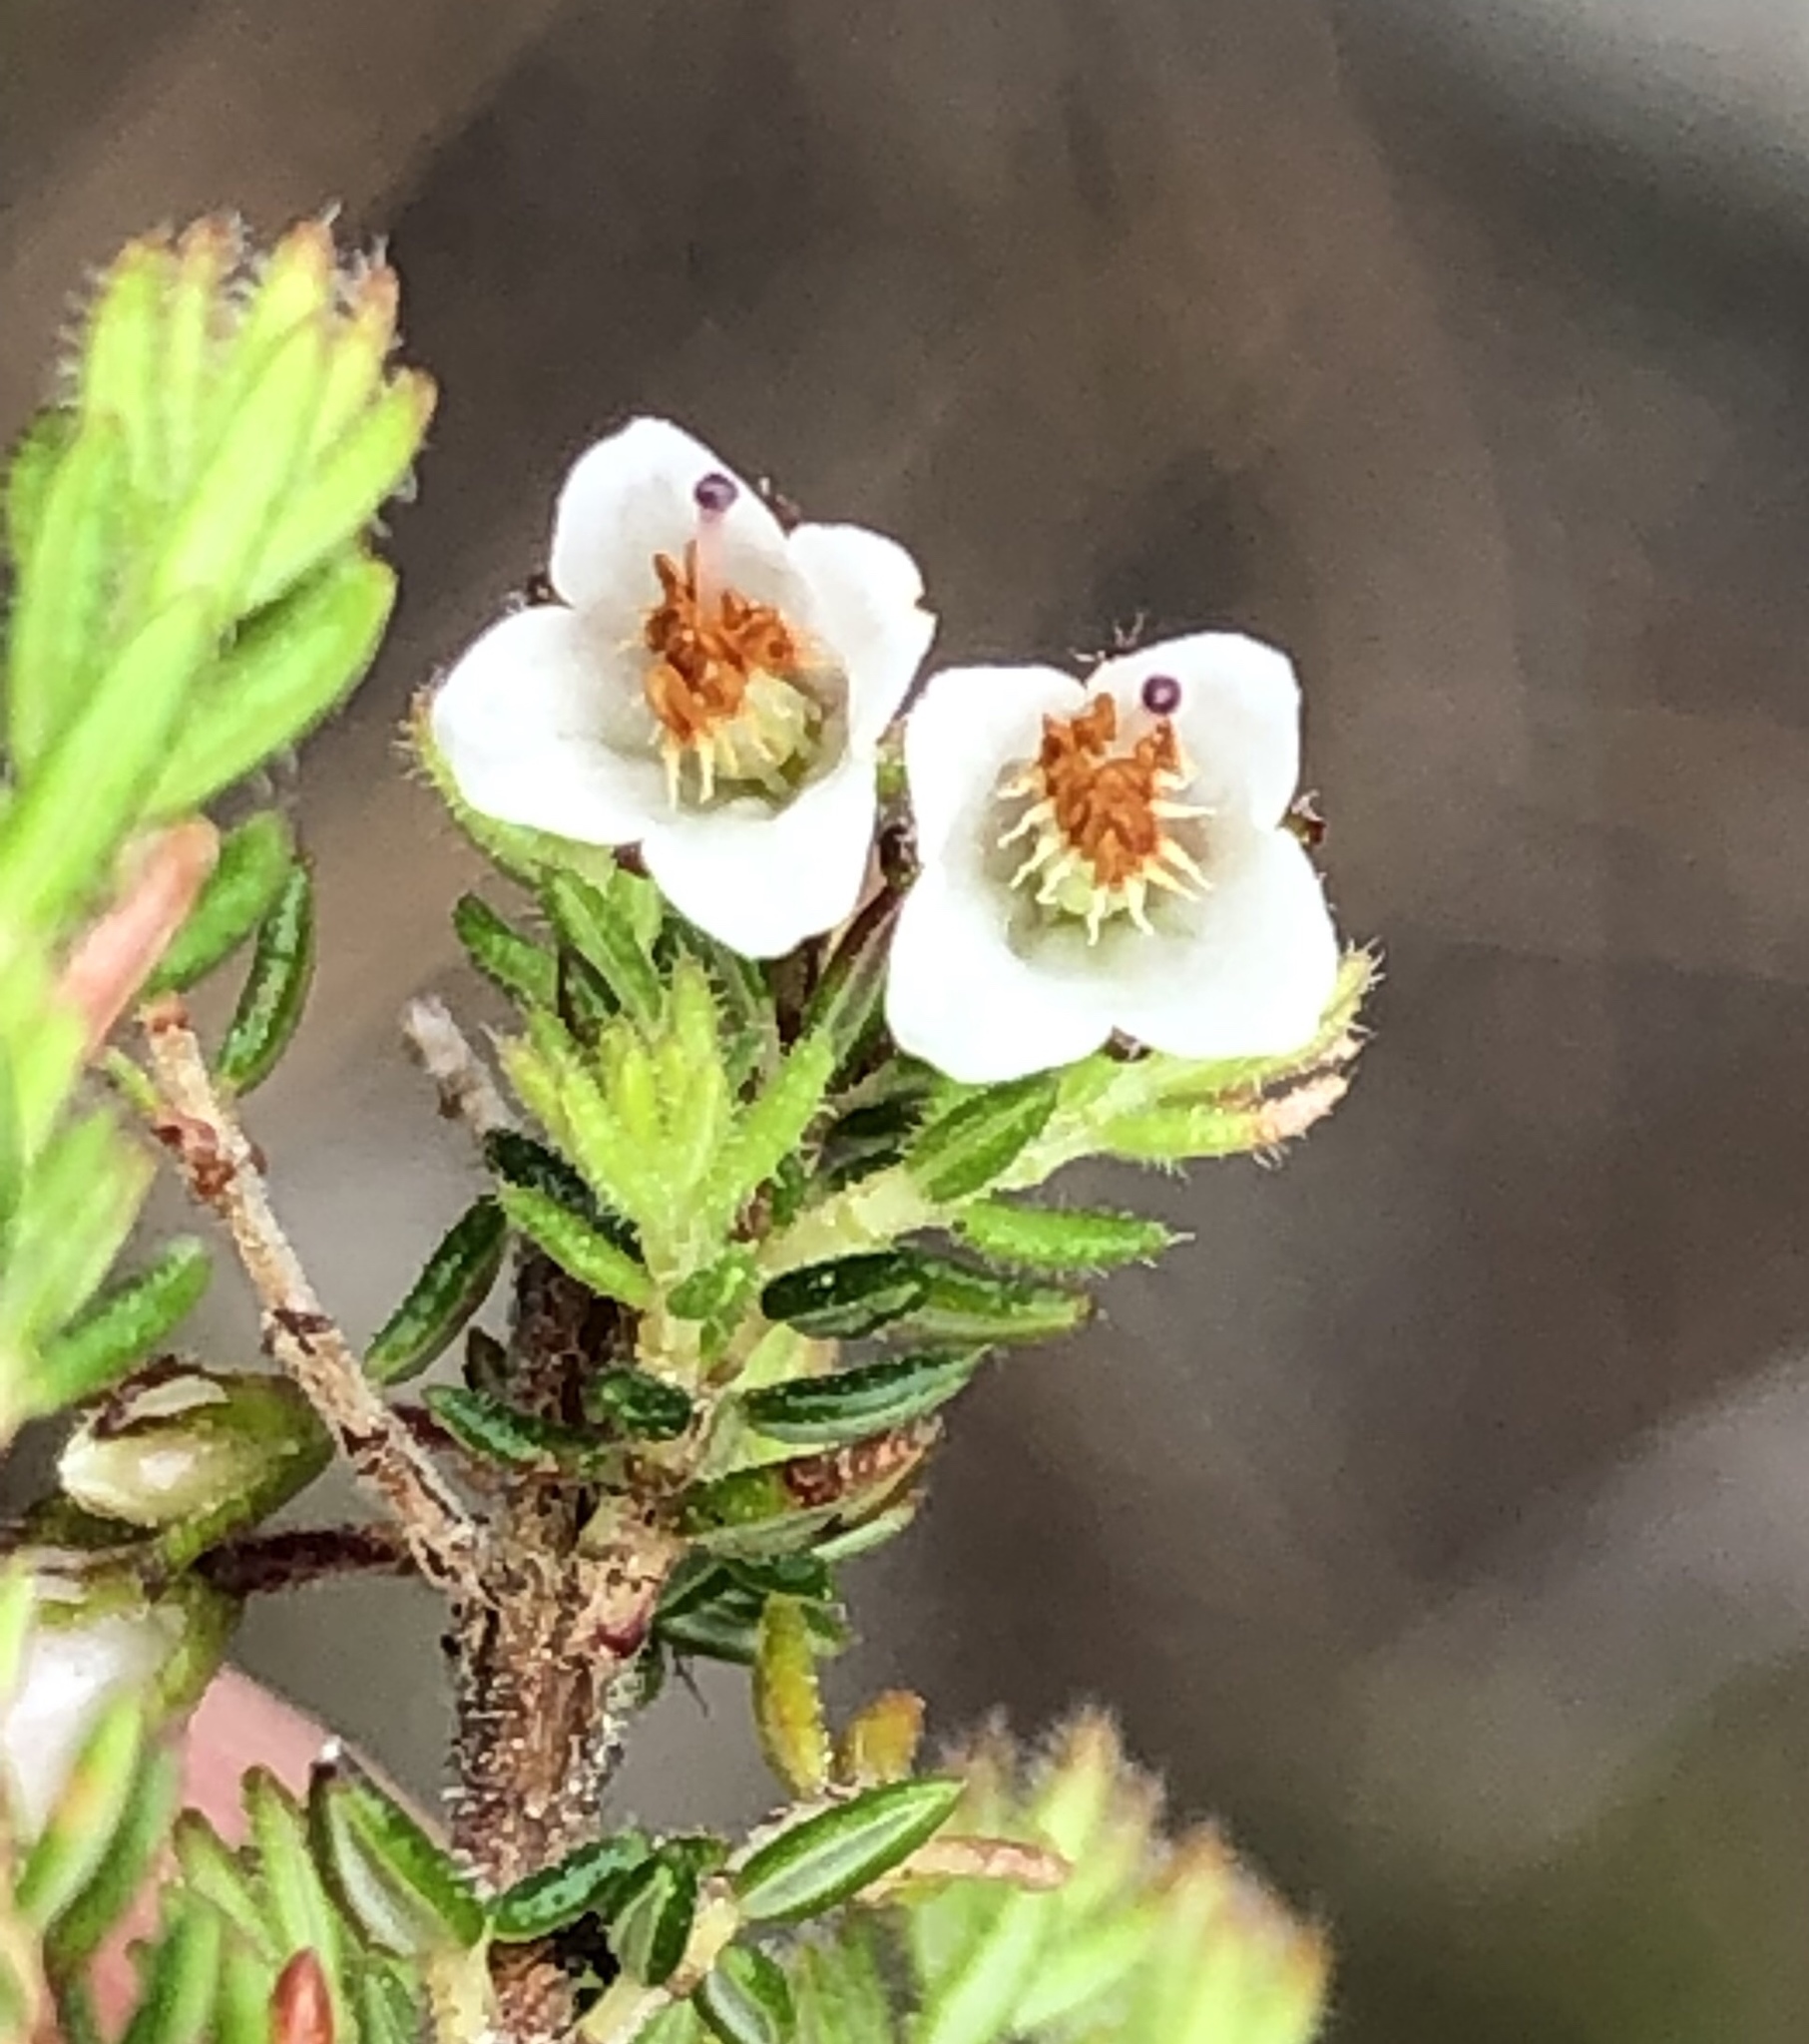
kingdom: Plantae
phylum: Tracheophyta
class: Magnoliopsida
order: Ericales
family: Ericaceae
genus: Erica
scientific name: Erica deflexa
